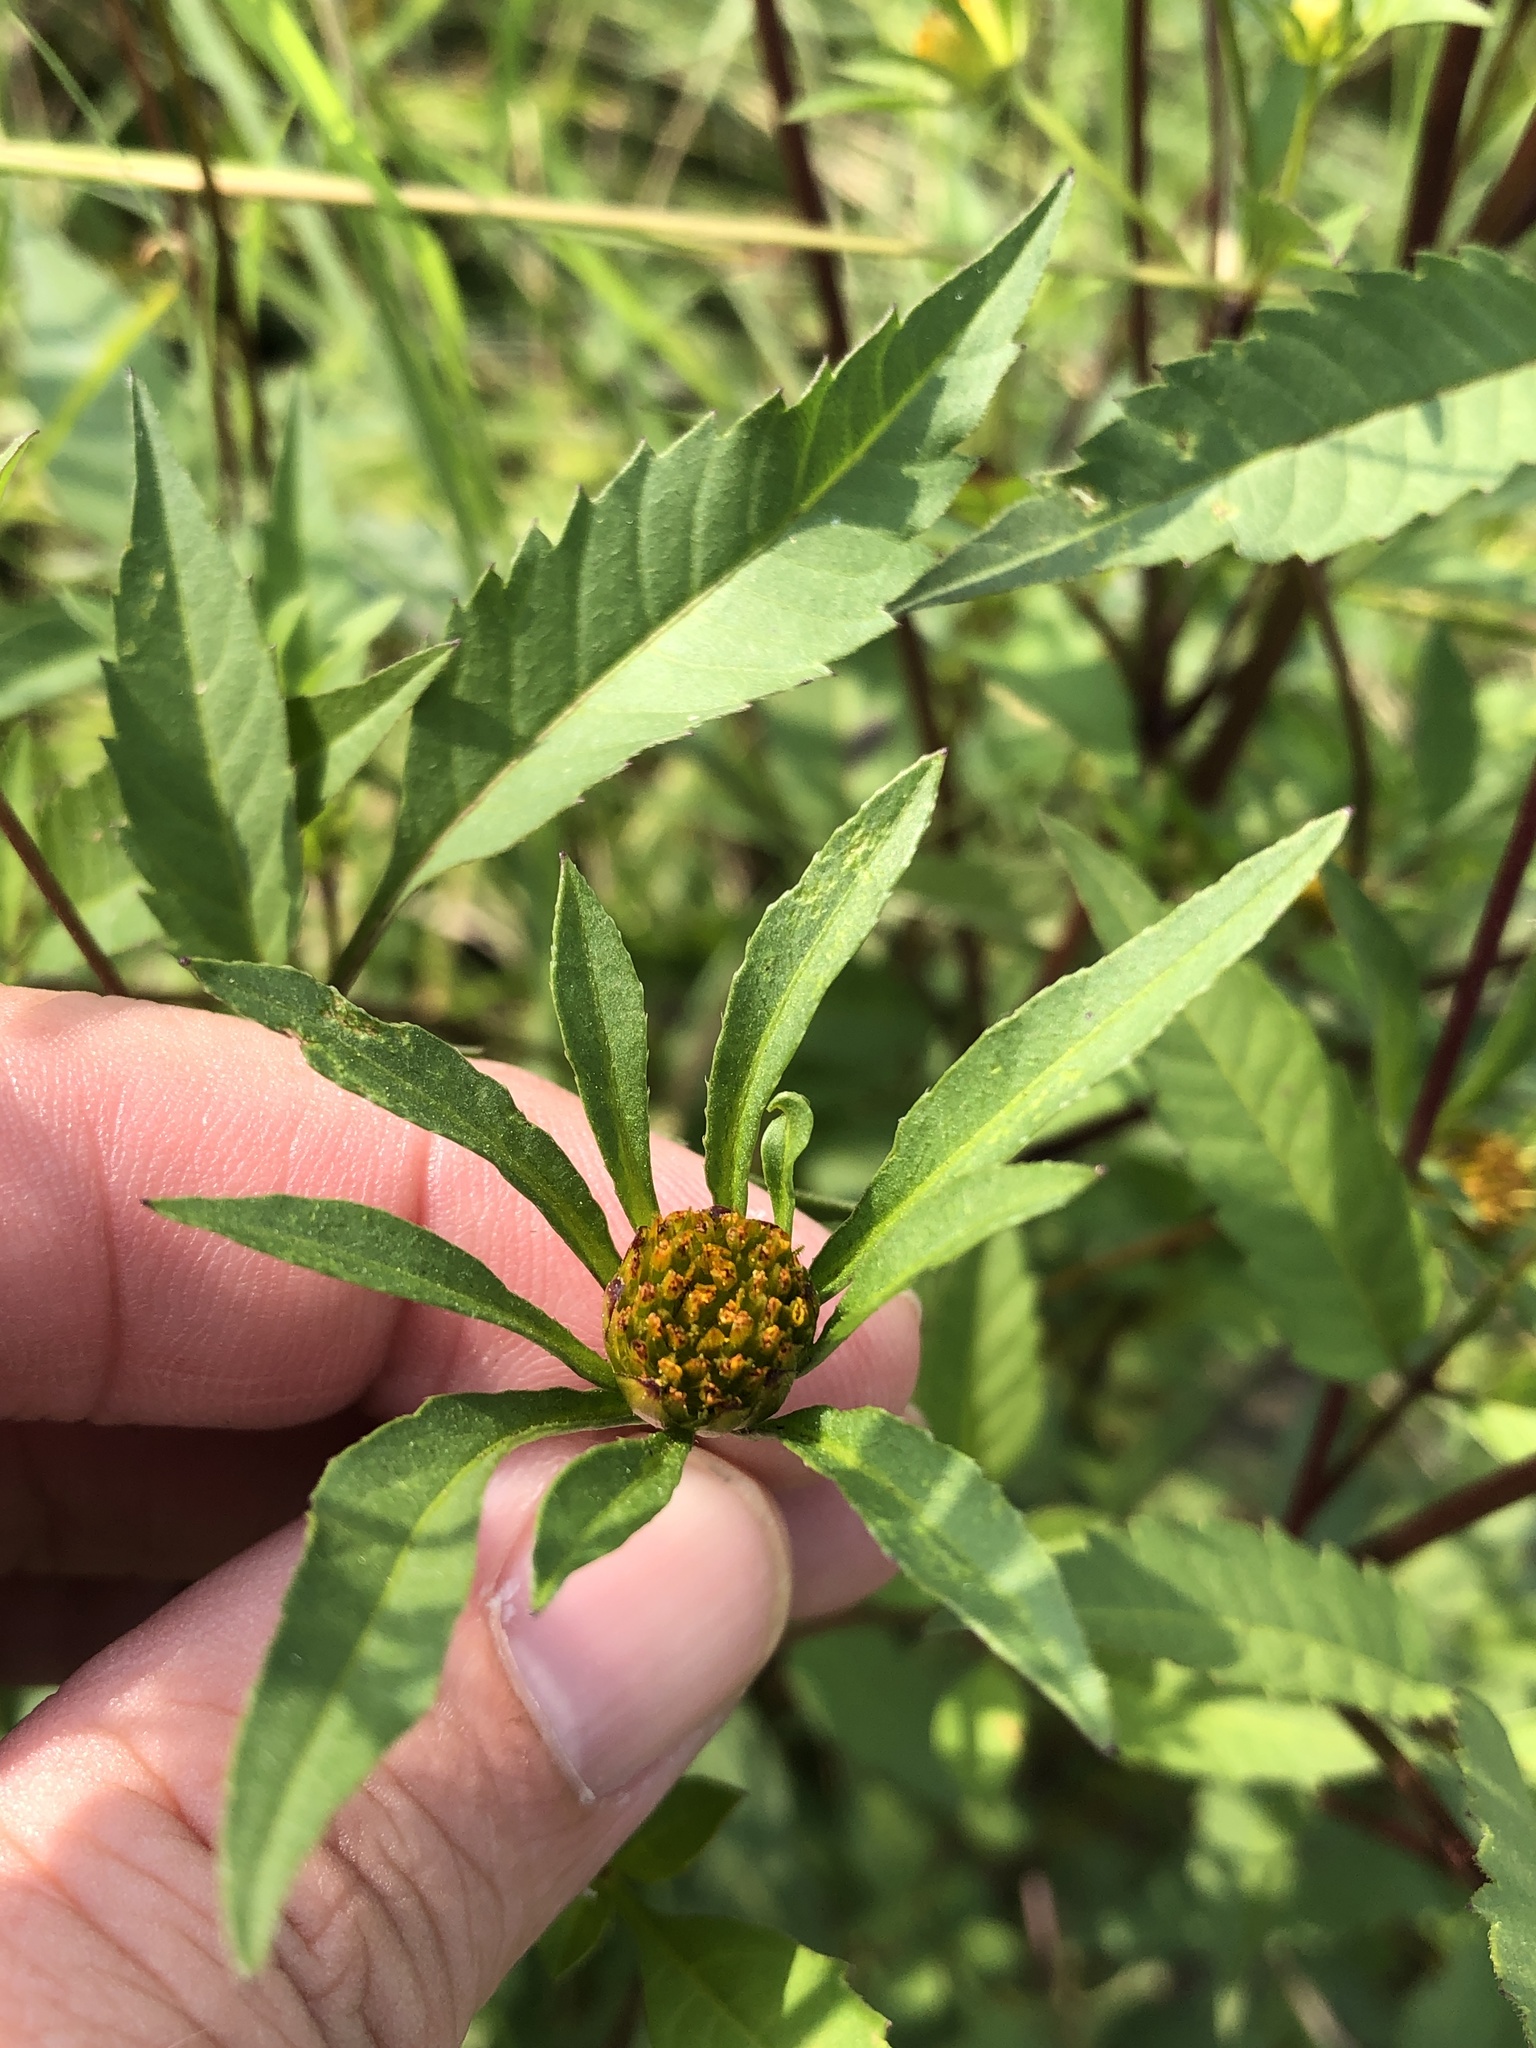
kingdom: Plantae
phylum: Tracheophyta
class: Magnoliopsida
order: Asterales
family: Asteraceae
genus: Bidens
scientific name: Bidens frondosa
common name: Beggarticks
